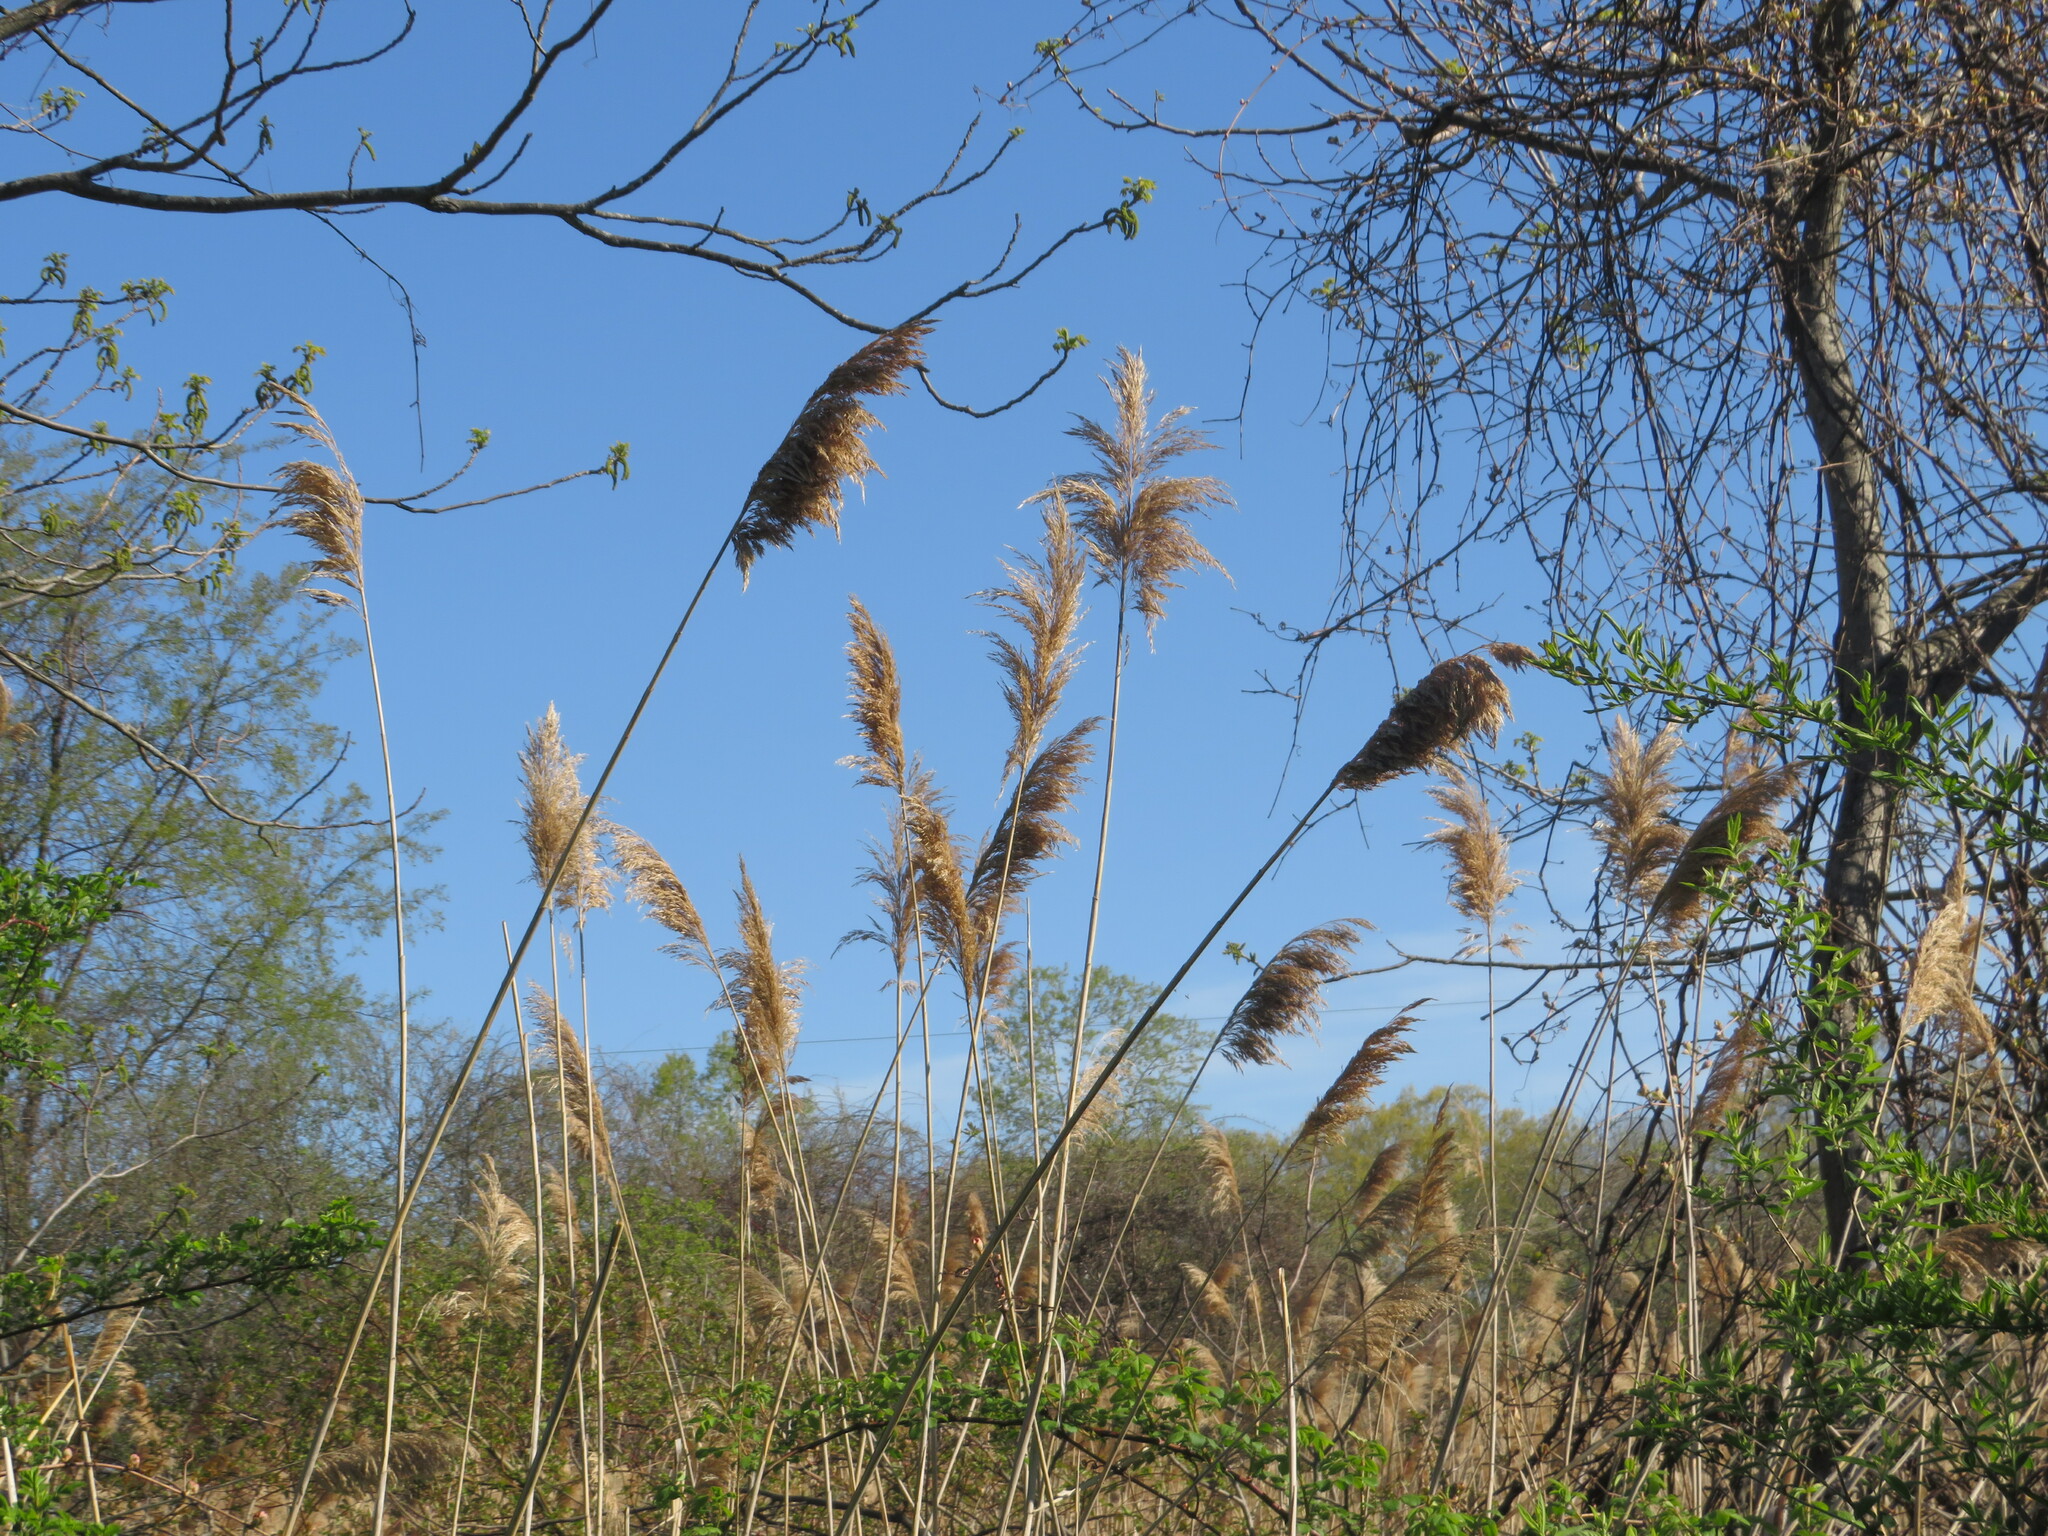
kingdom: Plantae
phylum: Tracheophyta
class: Liliopsida
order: Poales
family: Poaceae
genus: Phragmites
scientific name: Phragmites australis
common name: Common reed
